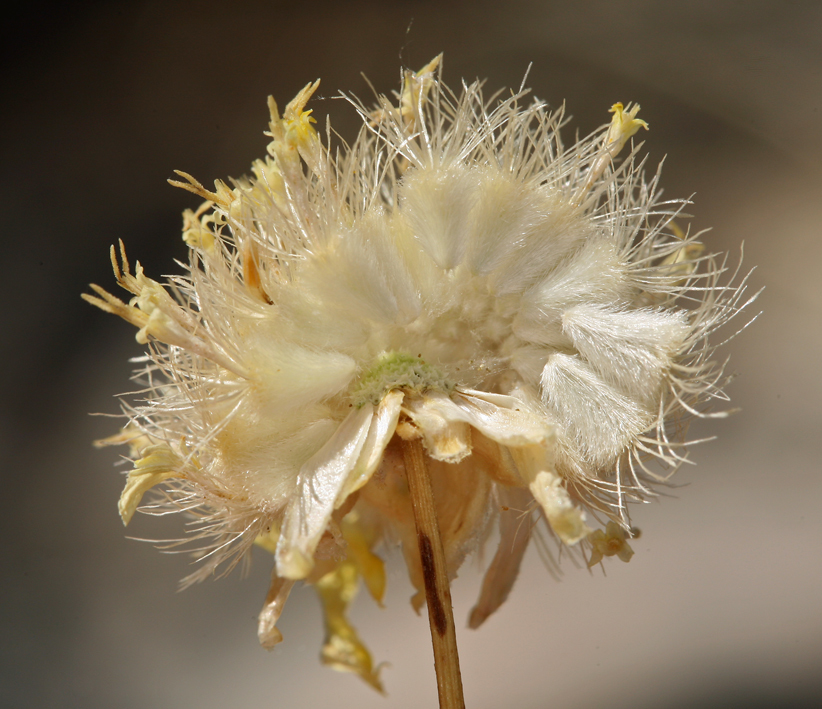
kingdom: Plantae
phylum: Tracheophyta
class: Magnoliopsida
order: Asterales
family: Asteraceae
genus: Acamptopappus
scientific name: Acamptopappus shockleyi
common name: Shockley's goldenhead
